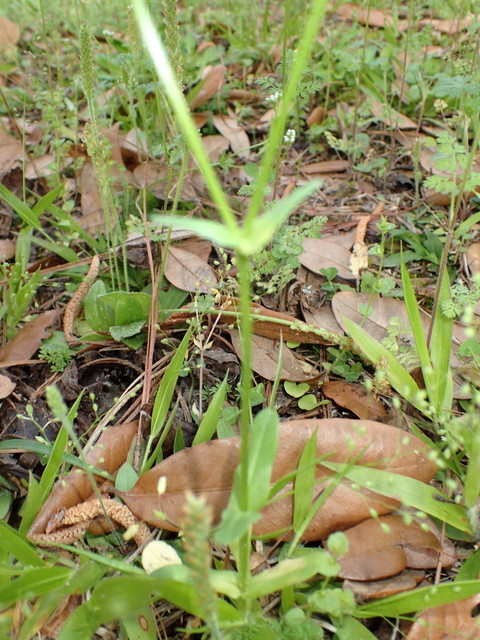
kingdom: Plantae
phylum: Tracheophyta
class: Magnoliopsida
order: Dipsacales
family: Caprifoliaceae
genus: Valerianella
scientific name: Valerianella radiata
